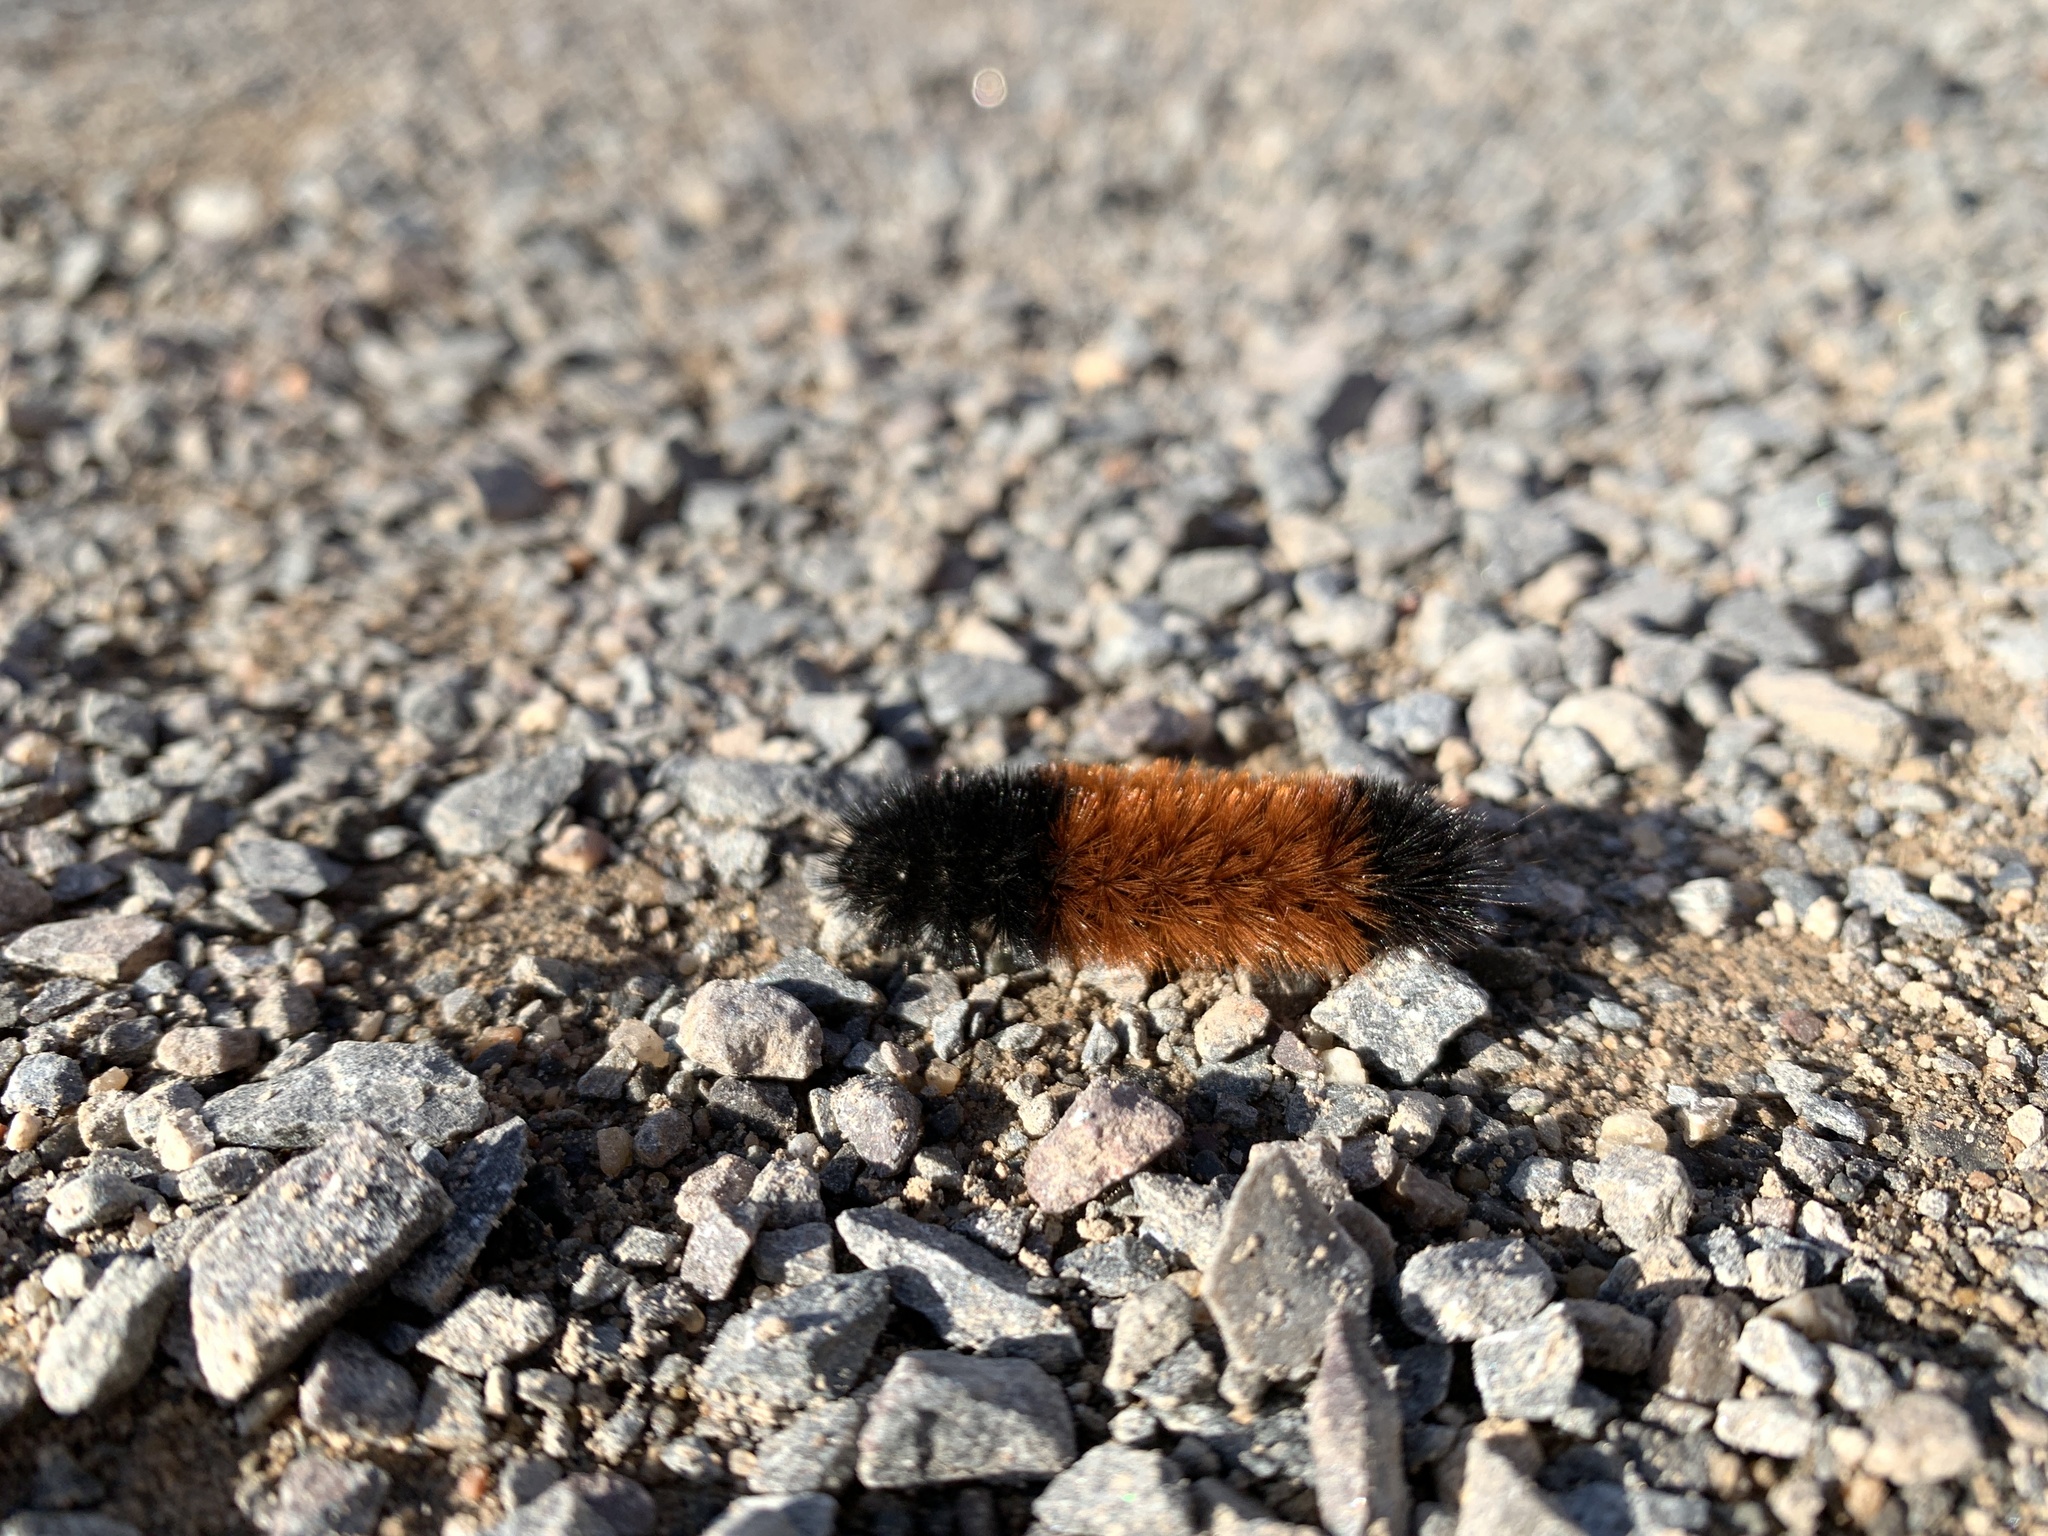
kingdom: Animalia
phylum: Arthropoda
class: Insecta
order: Lepidoptera
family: Erebidae
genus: Pyrrharctia
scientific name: Pyrrharctia isabella
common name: Isabella tiger moth
